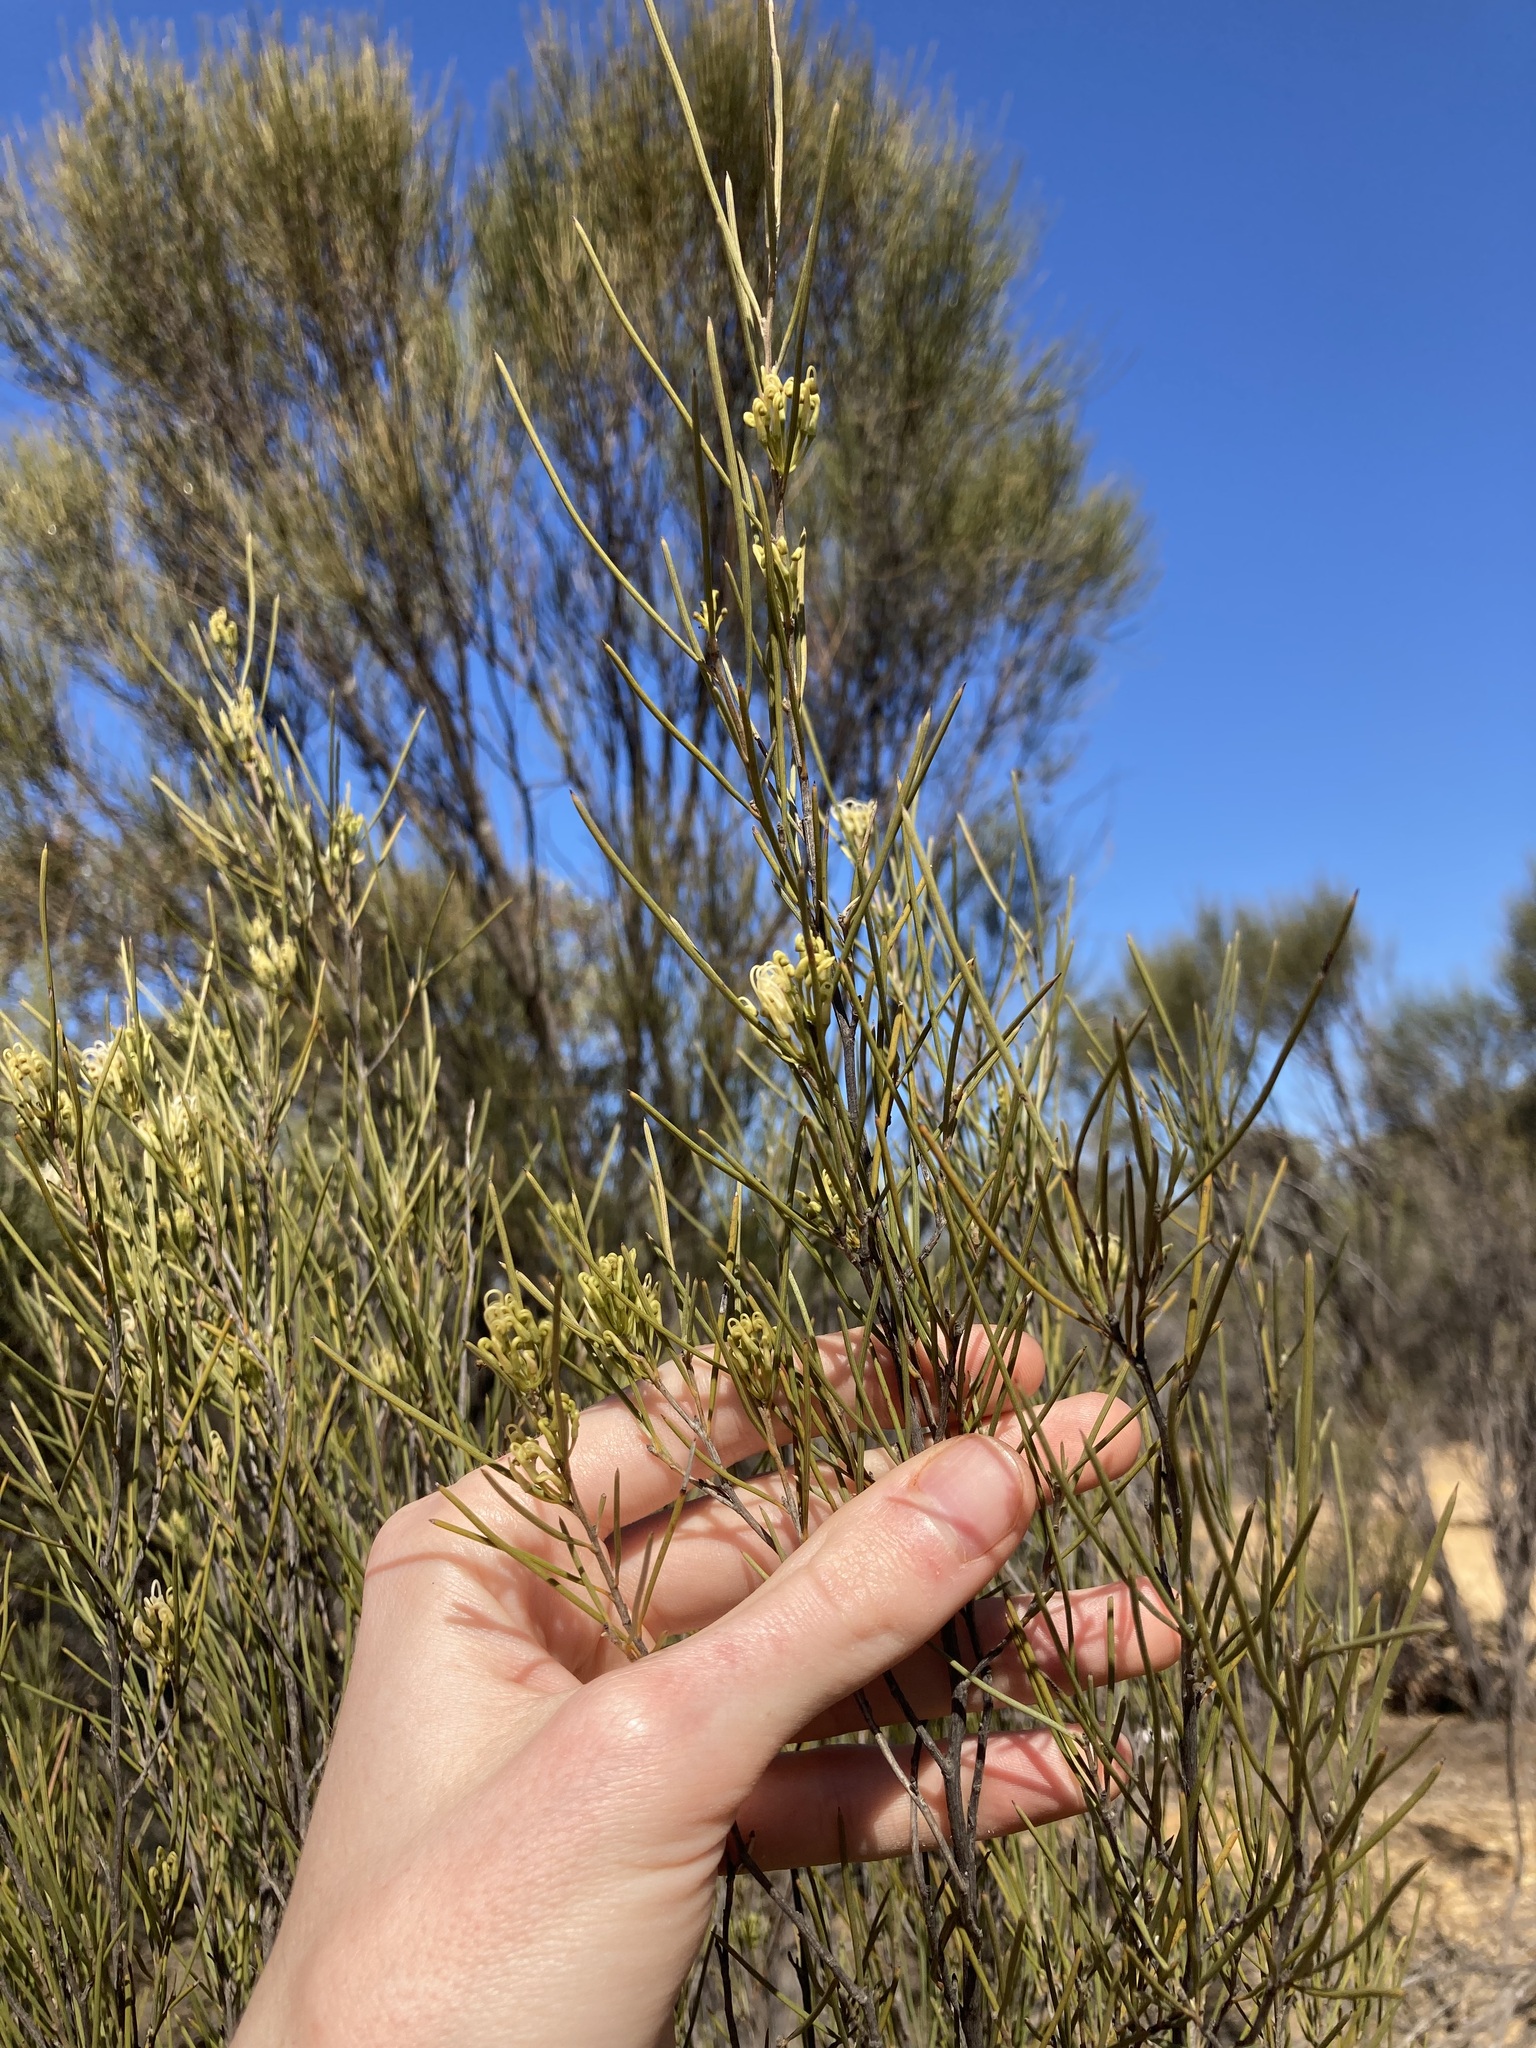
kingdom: Plantae
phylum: Tracheophyta
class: Magnoliopsida
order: Proteales
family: Proteaceae
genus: Grevillea
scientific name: Grevillea acacioides
